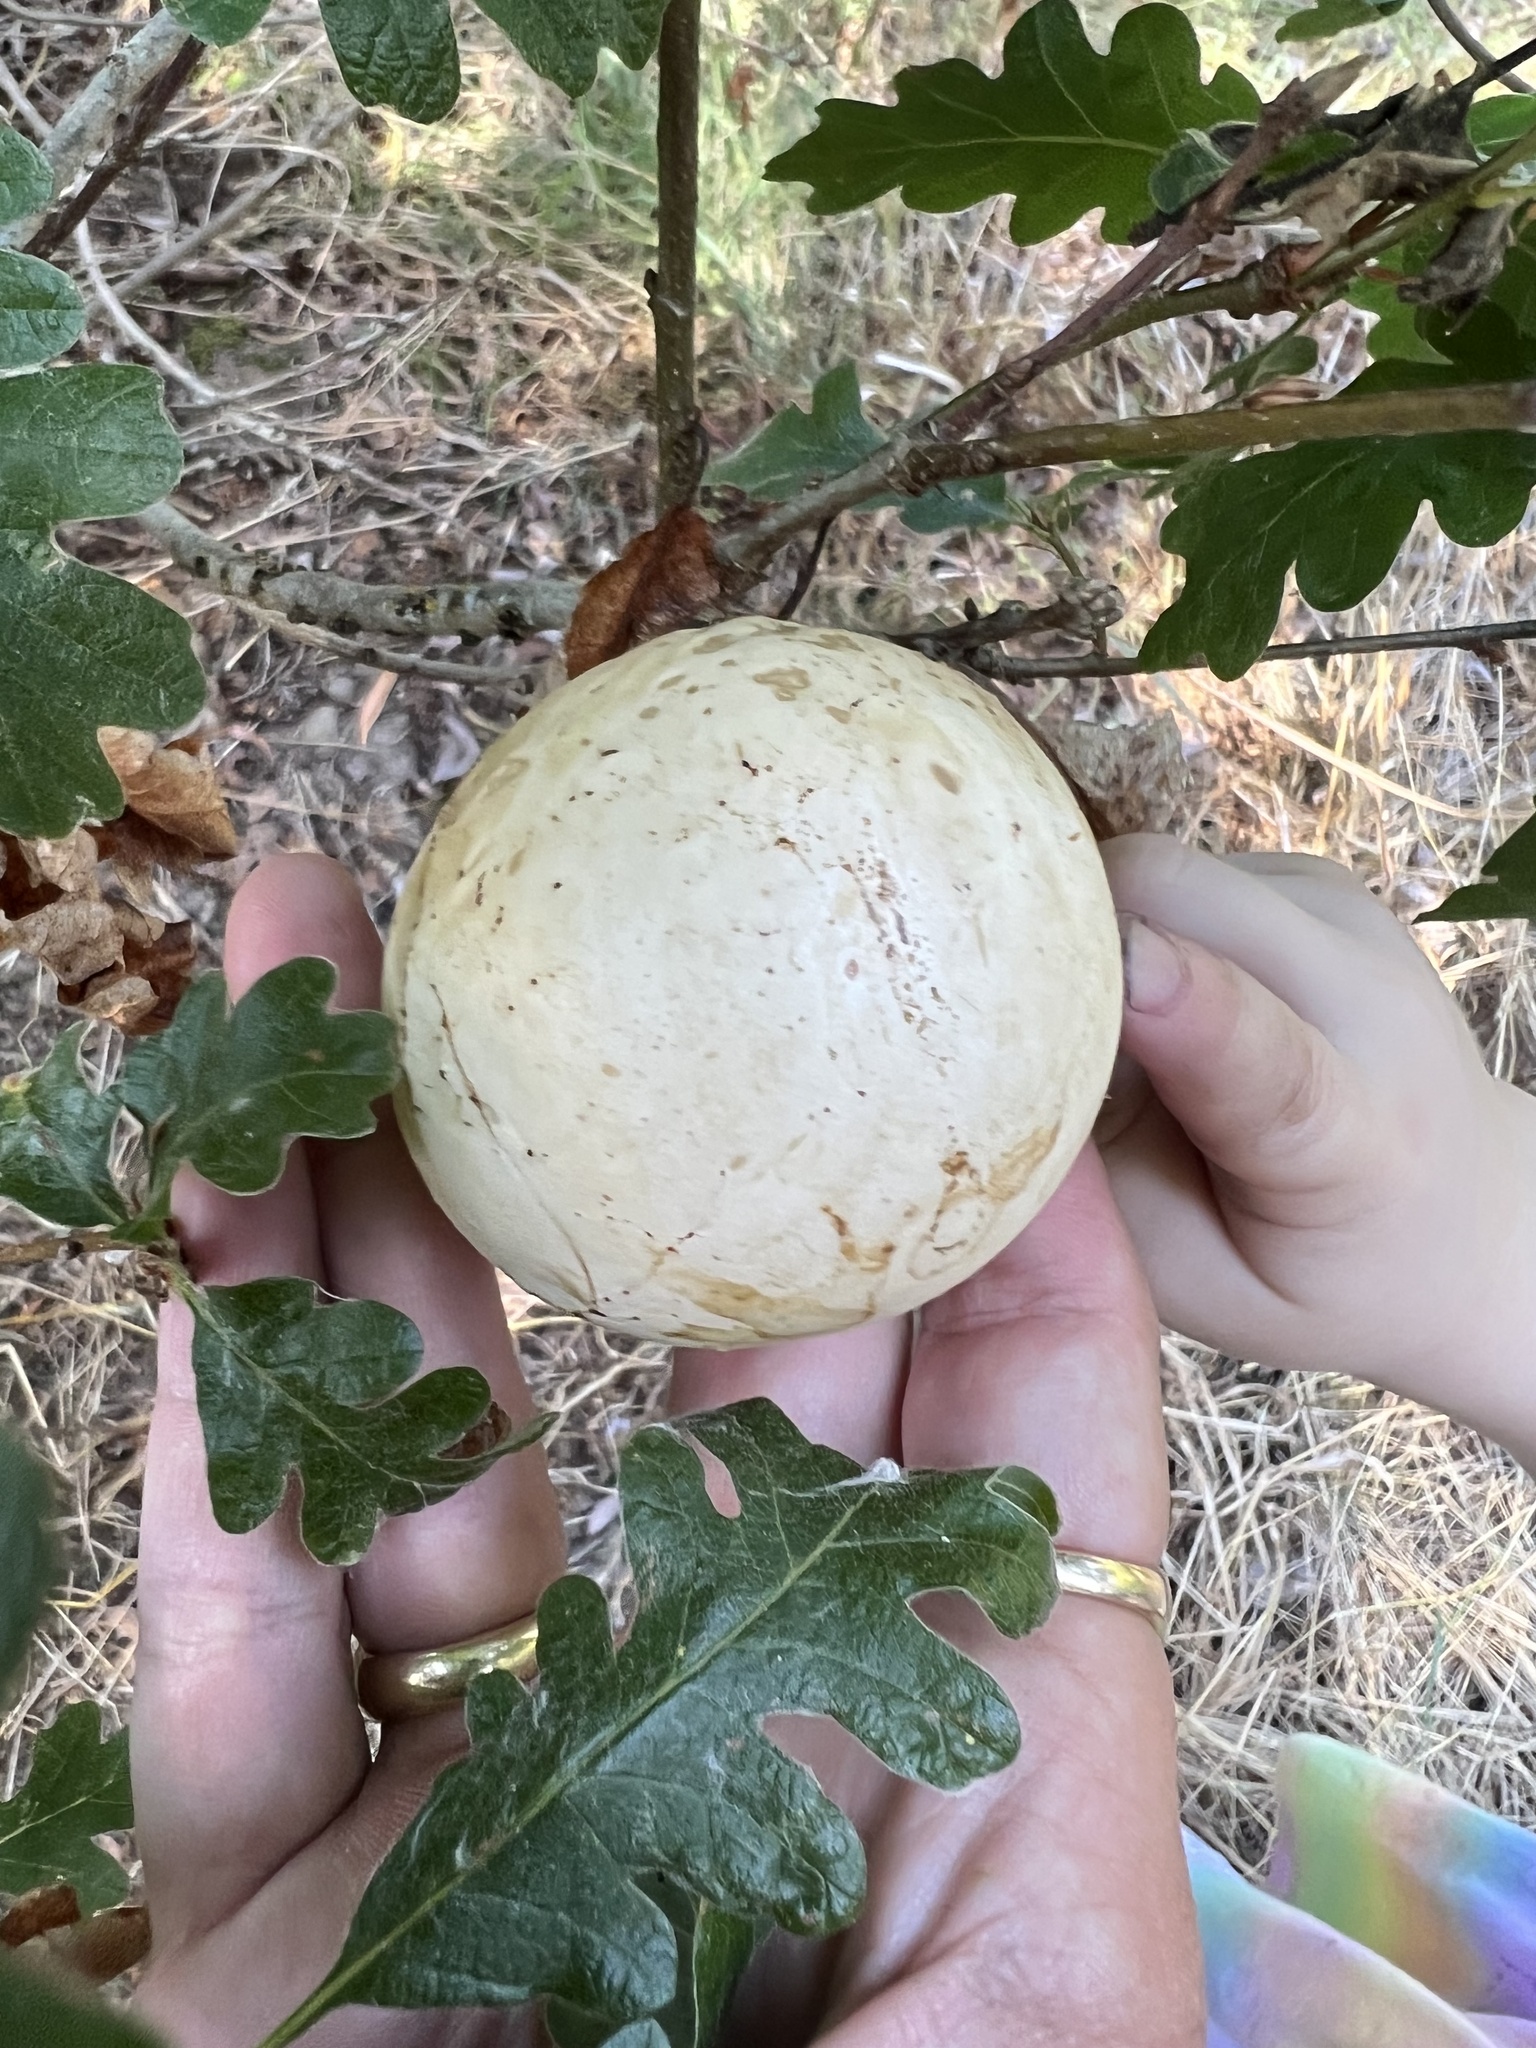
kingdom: Animalia
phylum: Arthropoda
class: Insecta
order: Hymenoptera
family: Cynipidae
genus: Andricus
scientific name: Andricus quercuscalifornicus
